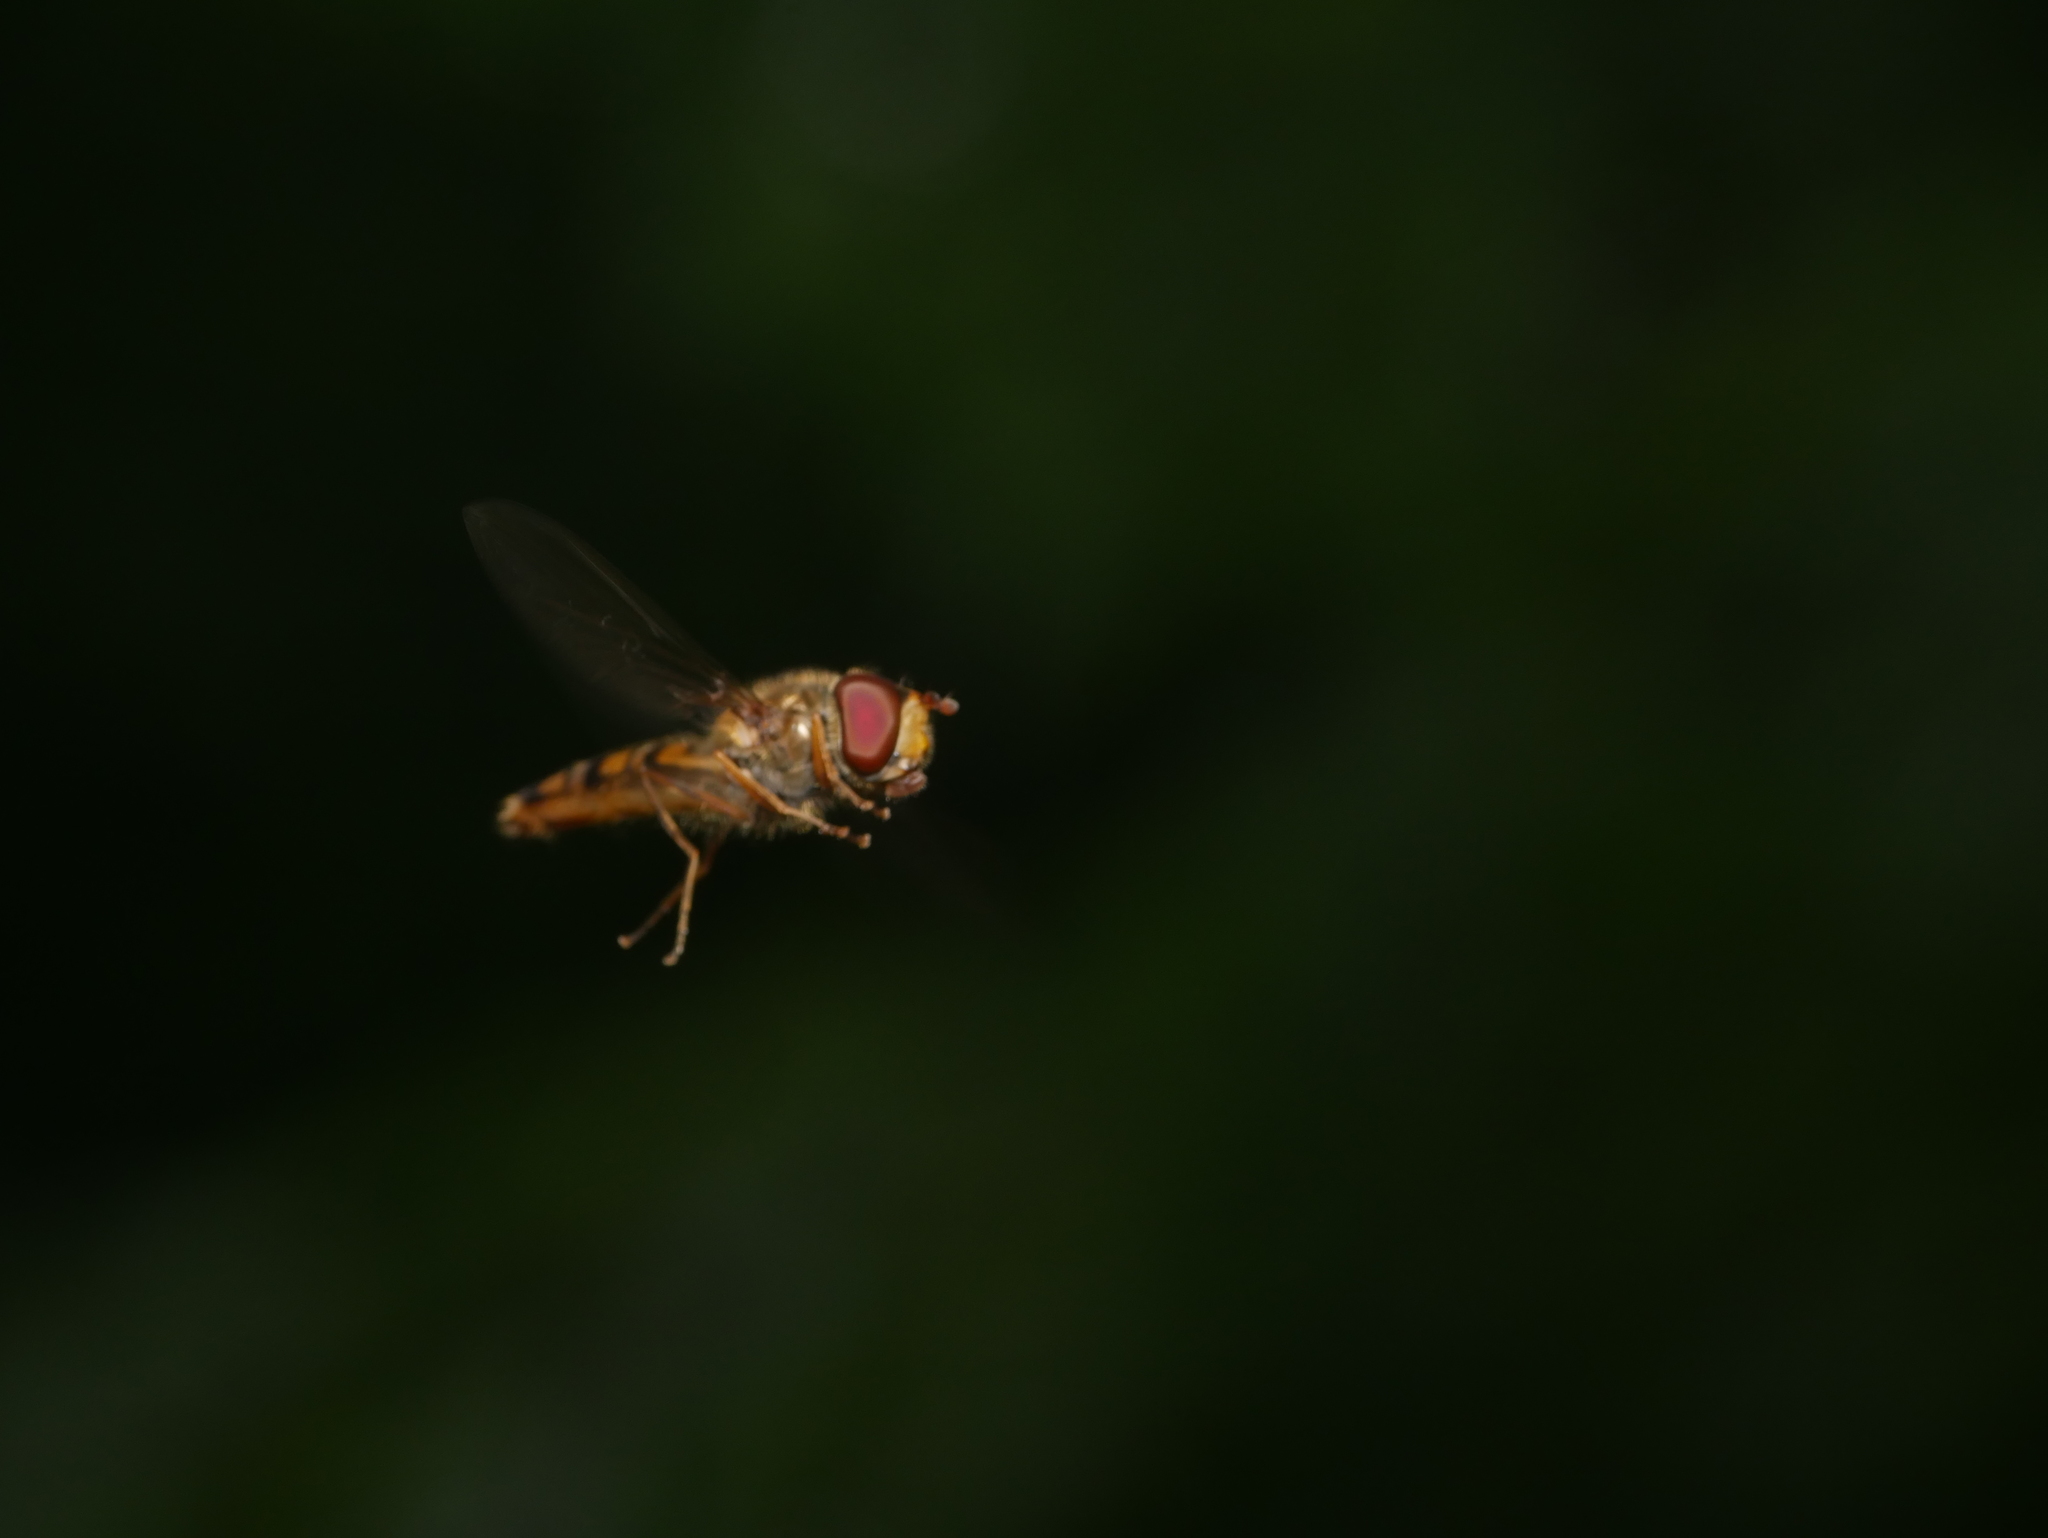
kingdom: Animalia
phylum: Arthropoda
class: Insecta
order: Diptera
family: Syrphidae
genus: Episyrphus
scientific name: Episyrphus balteatus
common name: Marmalade hoverfly
